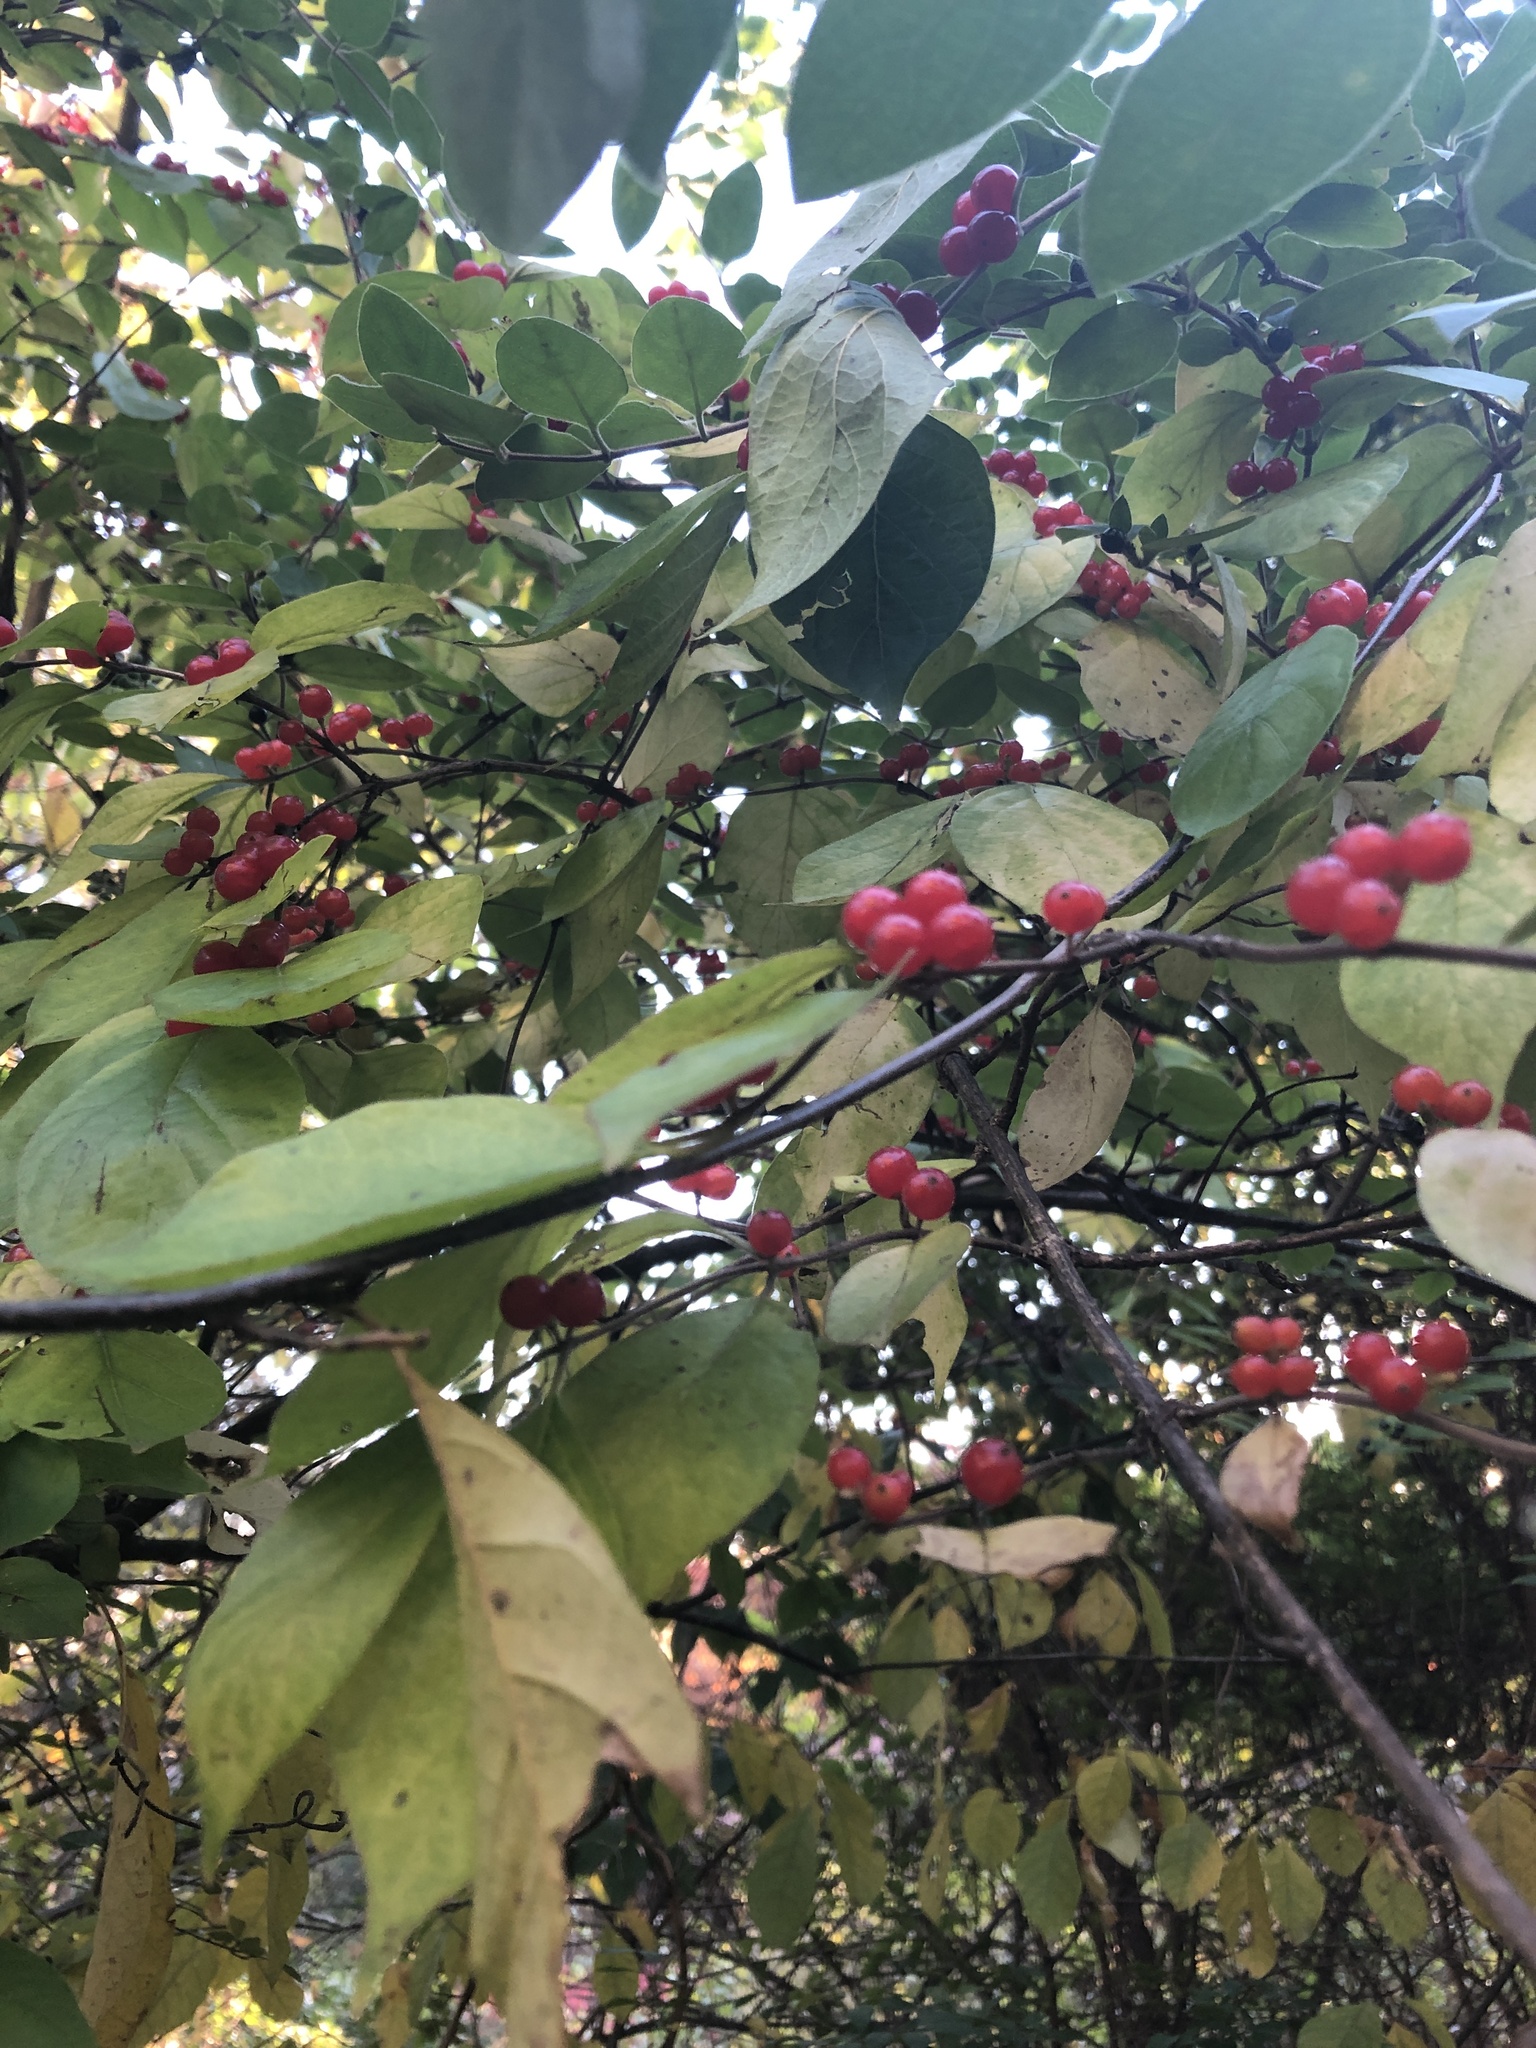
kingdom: Plantae
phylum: Tracheophyta
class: Magnoliopsida
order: Dipsacales
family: Caprifoliaceae
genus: Lonicera
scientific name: Lonicera maackii
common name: Amur honeysuckle
